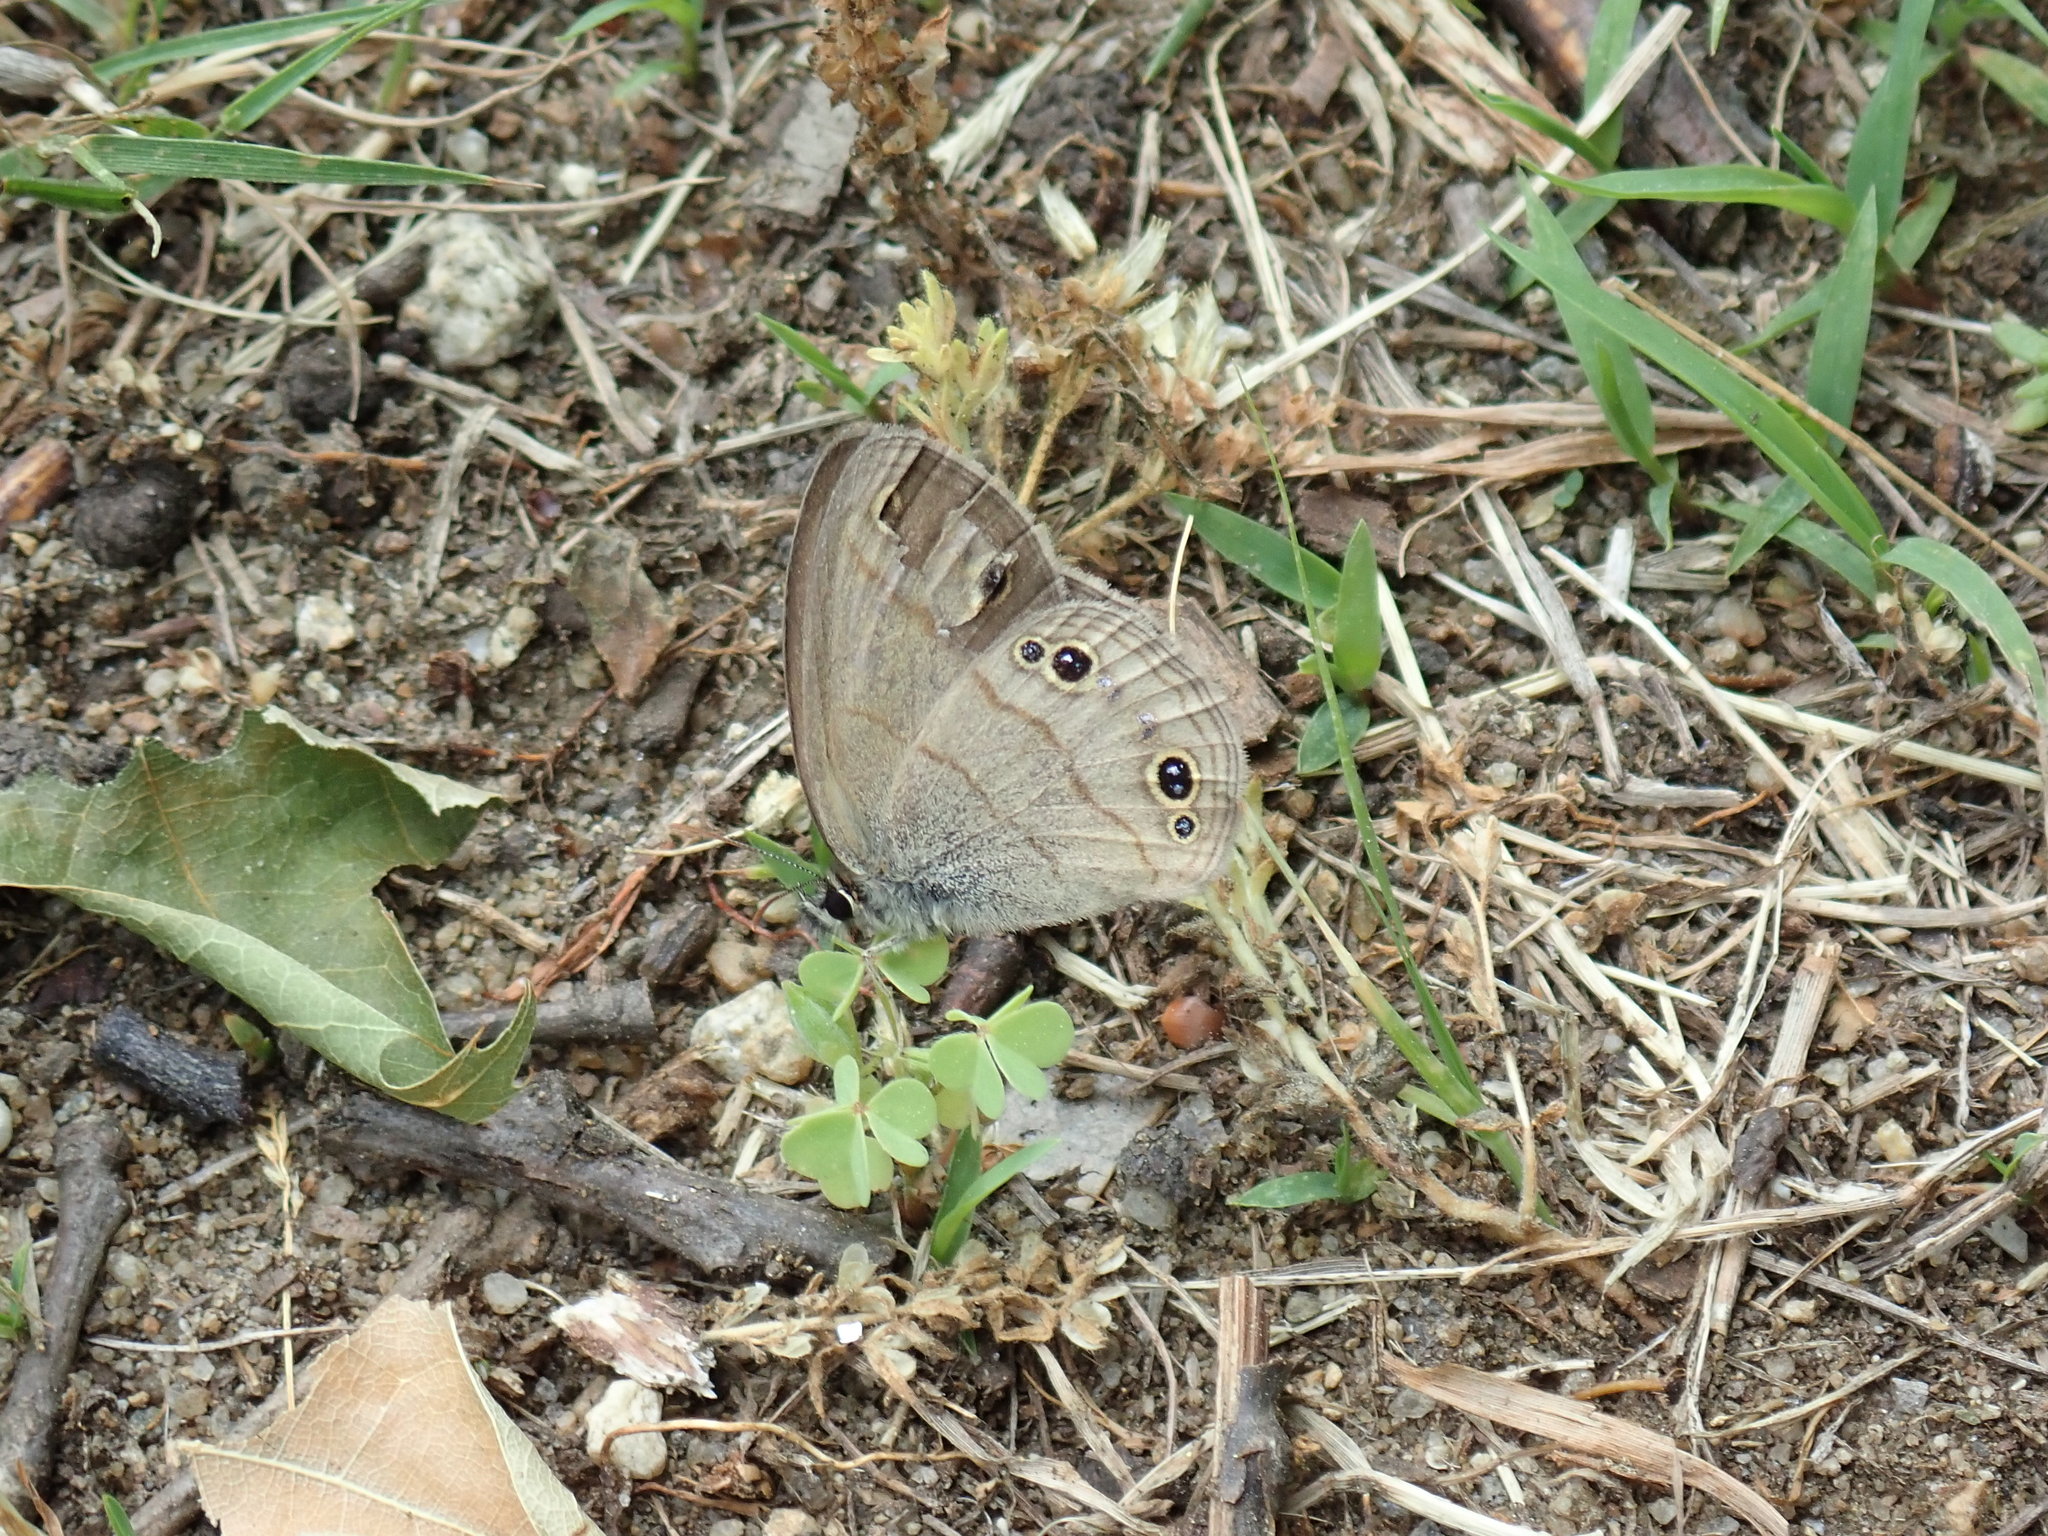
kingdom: Animalia
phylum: Arthropoda
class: Insecta
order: Lepidoptera
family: Nymphalidae
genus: Euptychia
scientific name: Euptychia cymela
